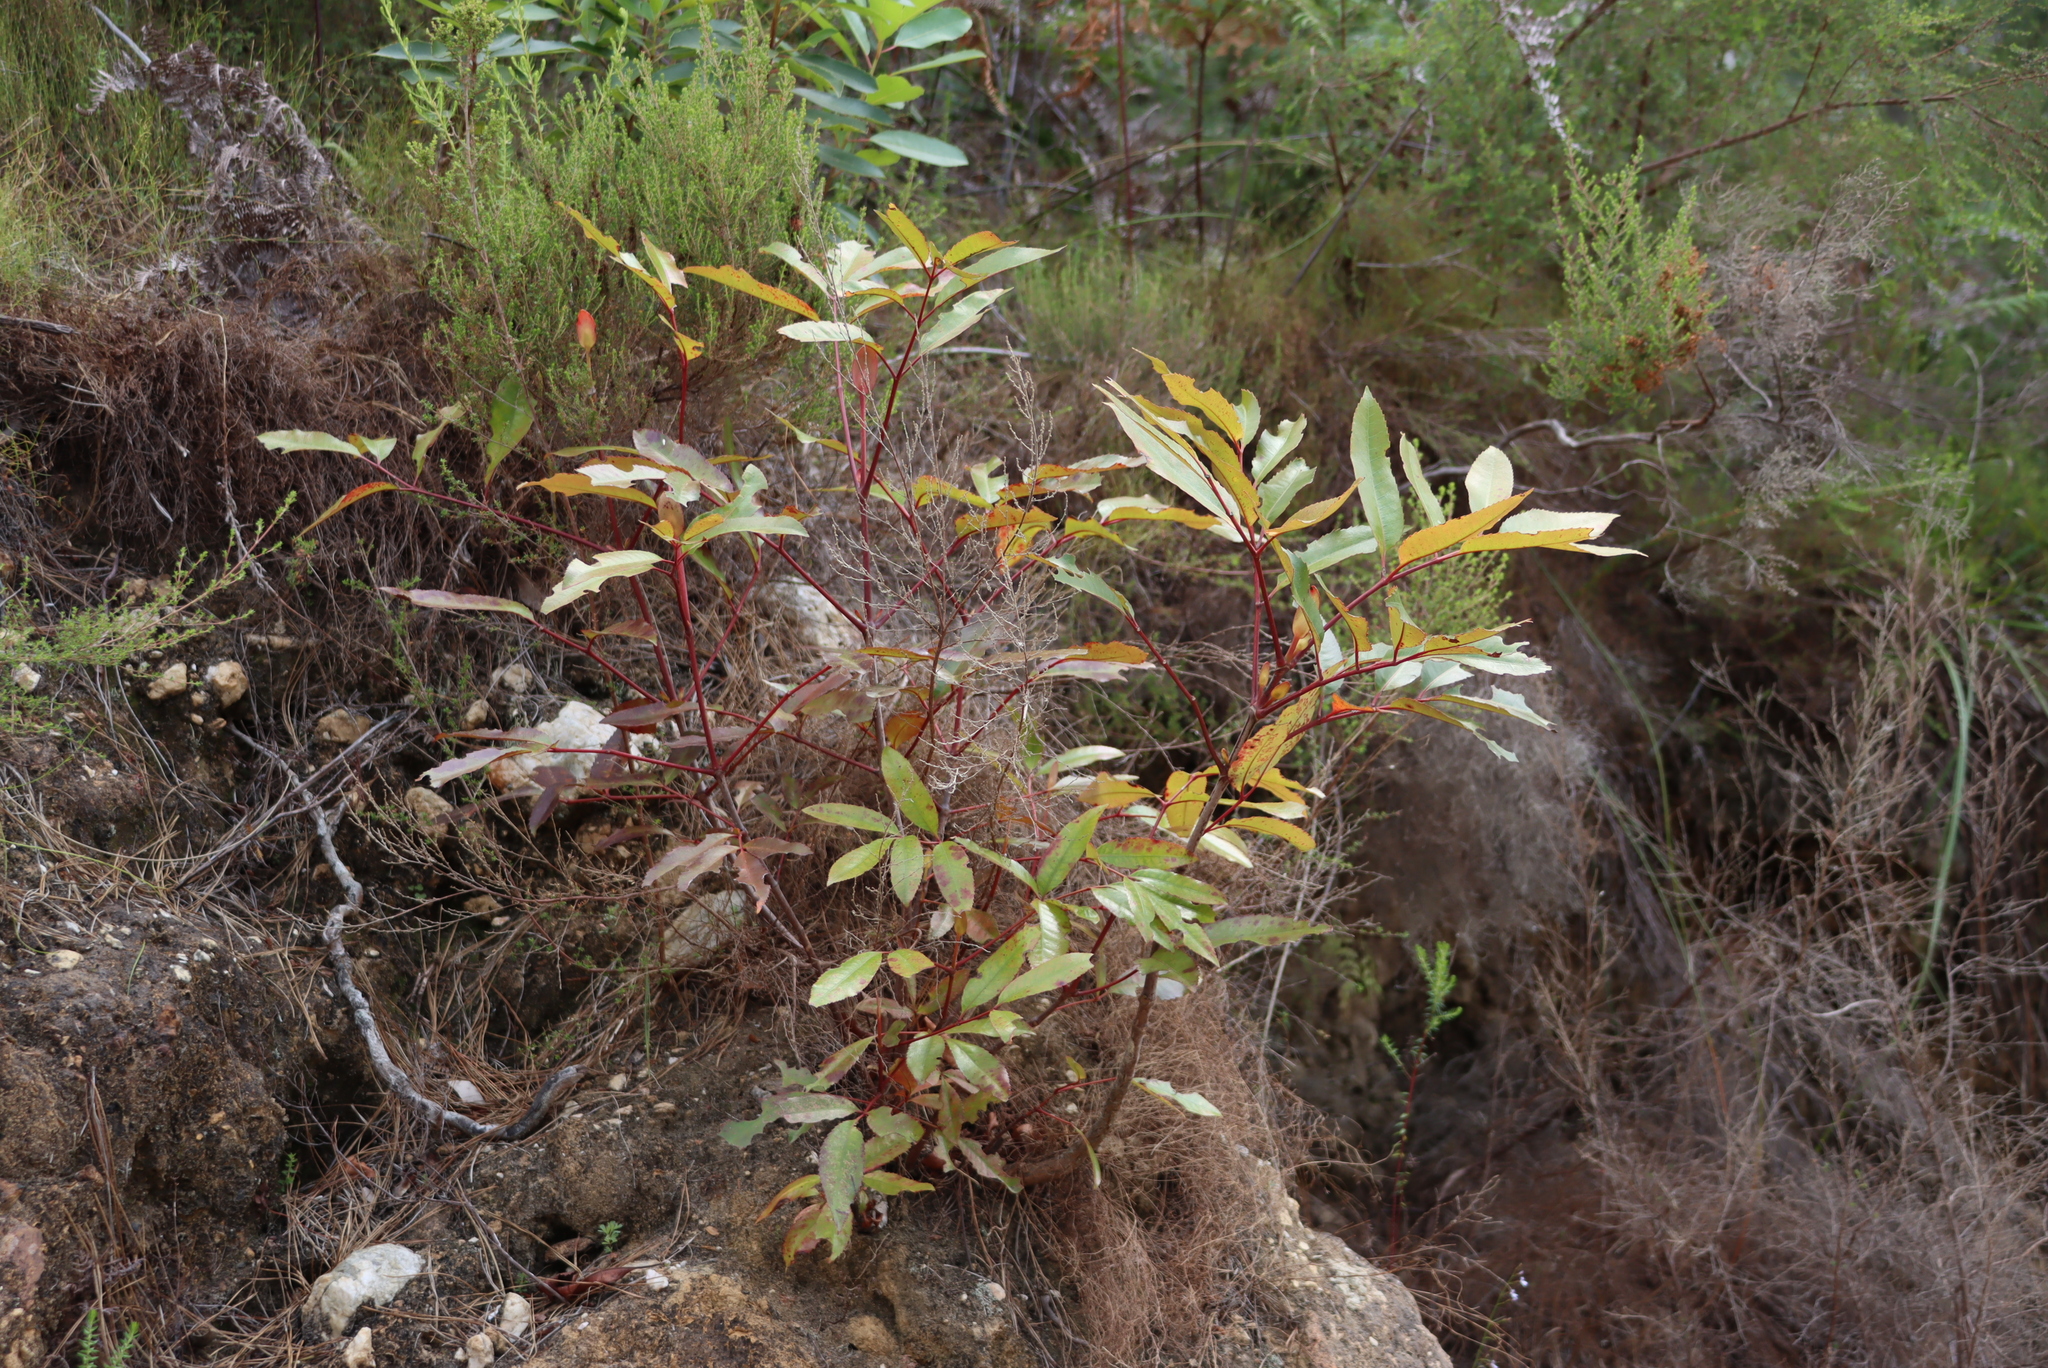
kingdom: Plantae
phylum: Tracheophyta
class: Magnoliopsida
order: Oxalidales
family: Cunoniaceae
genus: Cunonia
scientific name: Cunonia capensis
